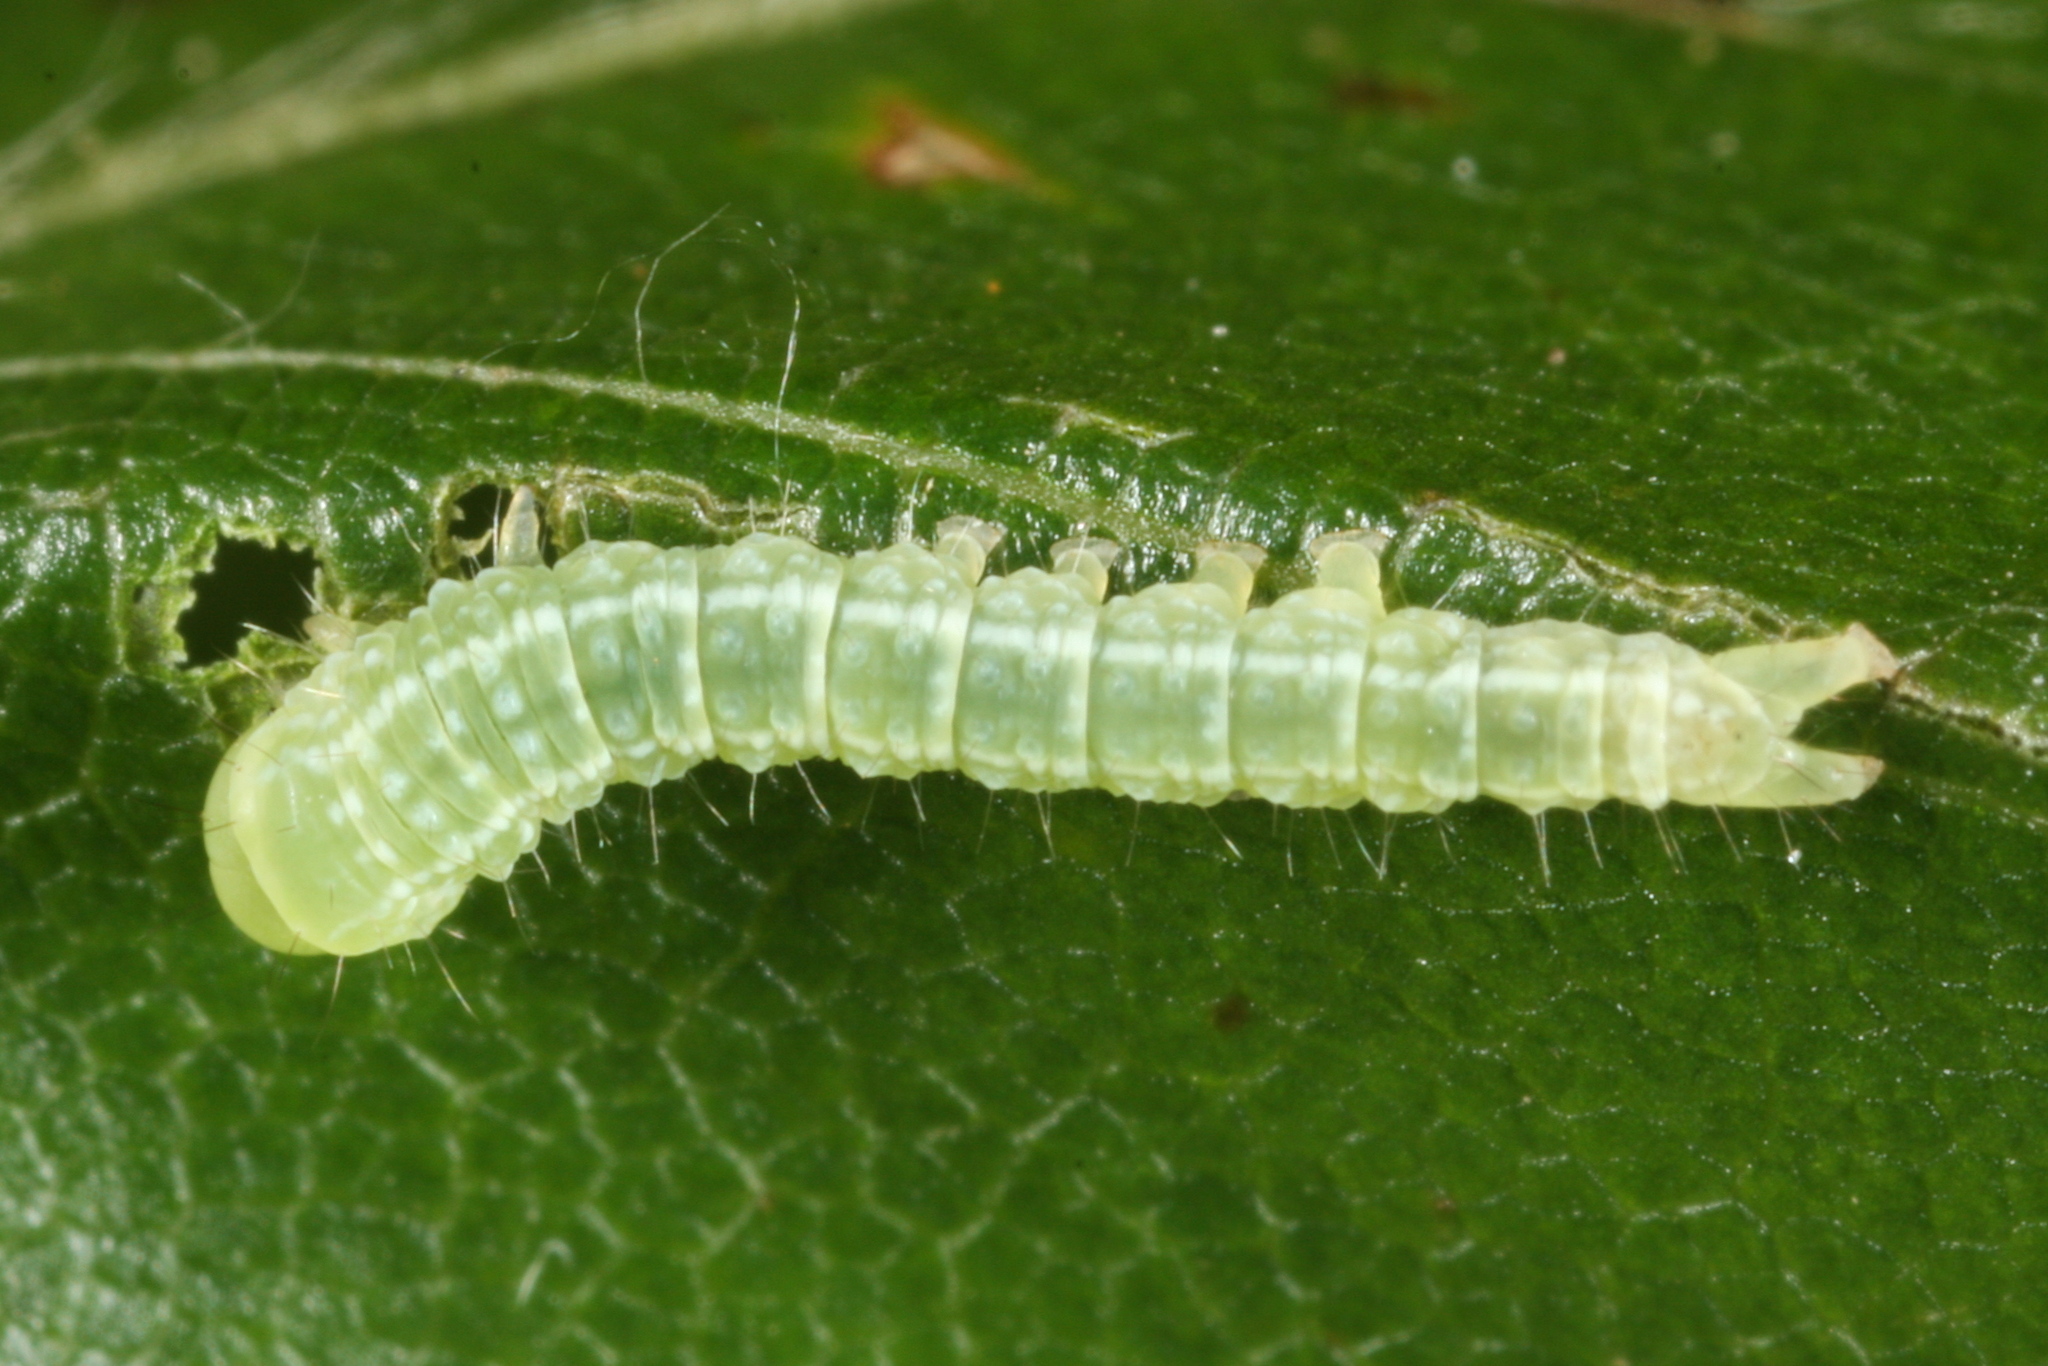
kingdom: Animalia
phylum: Arthropoda
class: Insecta
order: Lepidoptera
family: Nolidae
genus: Pseudoips
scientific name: Pseudoips prasinana
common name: Green silver-lines
